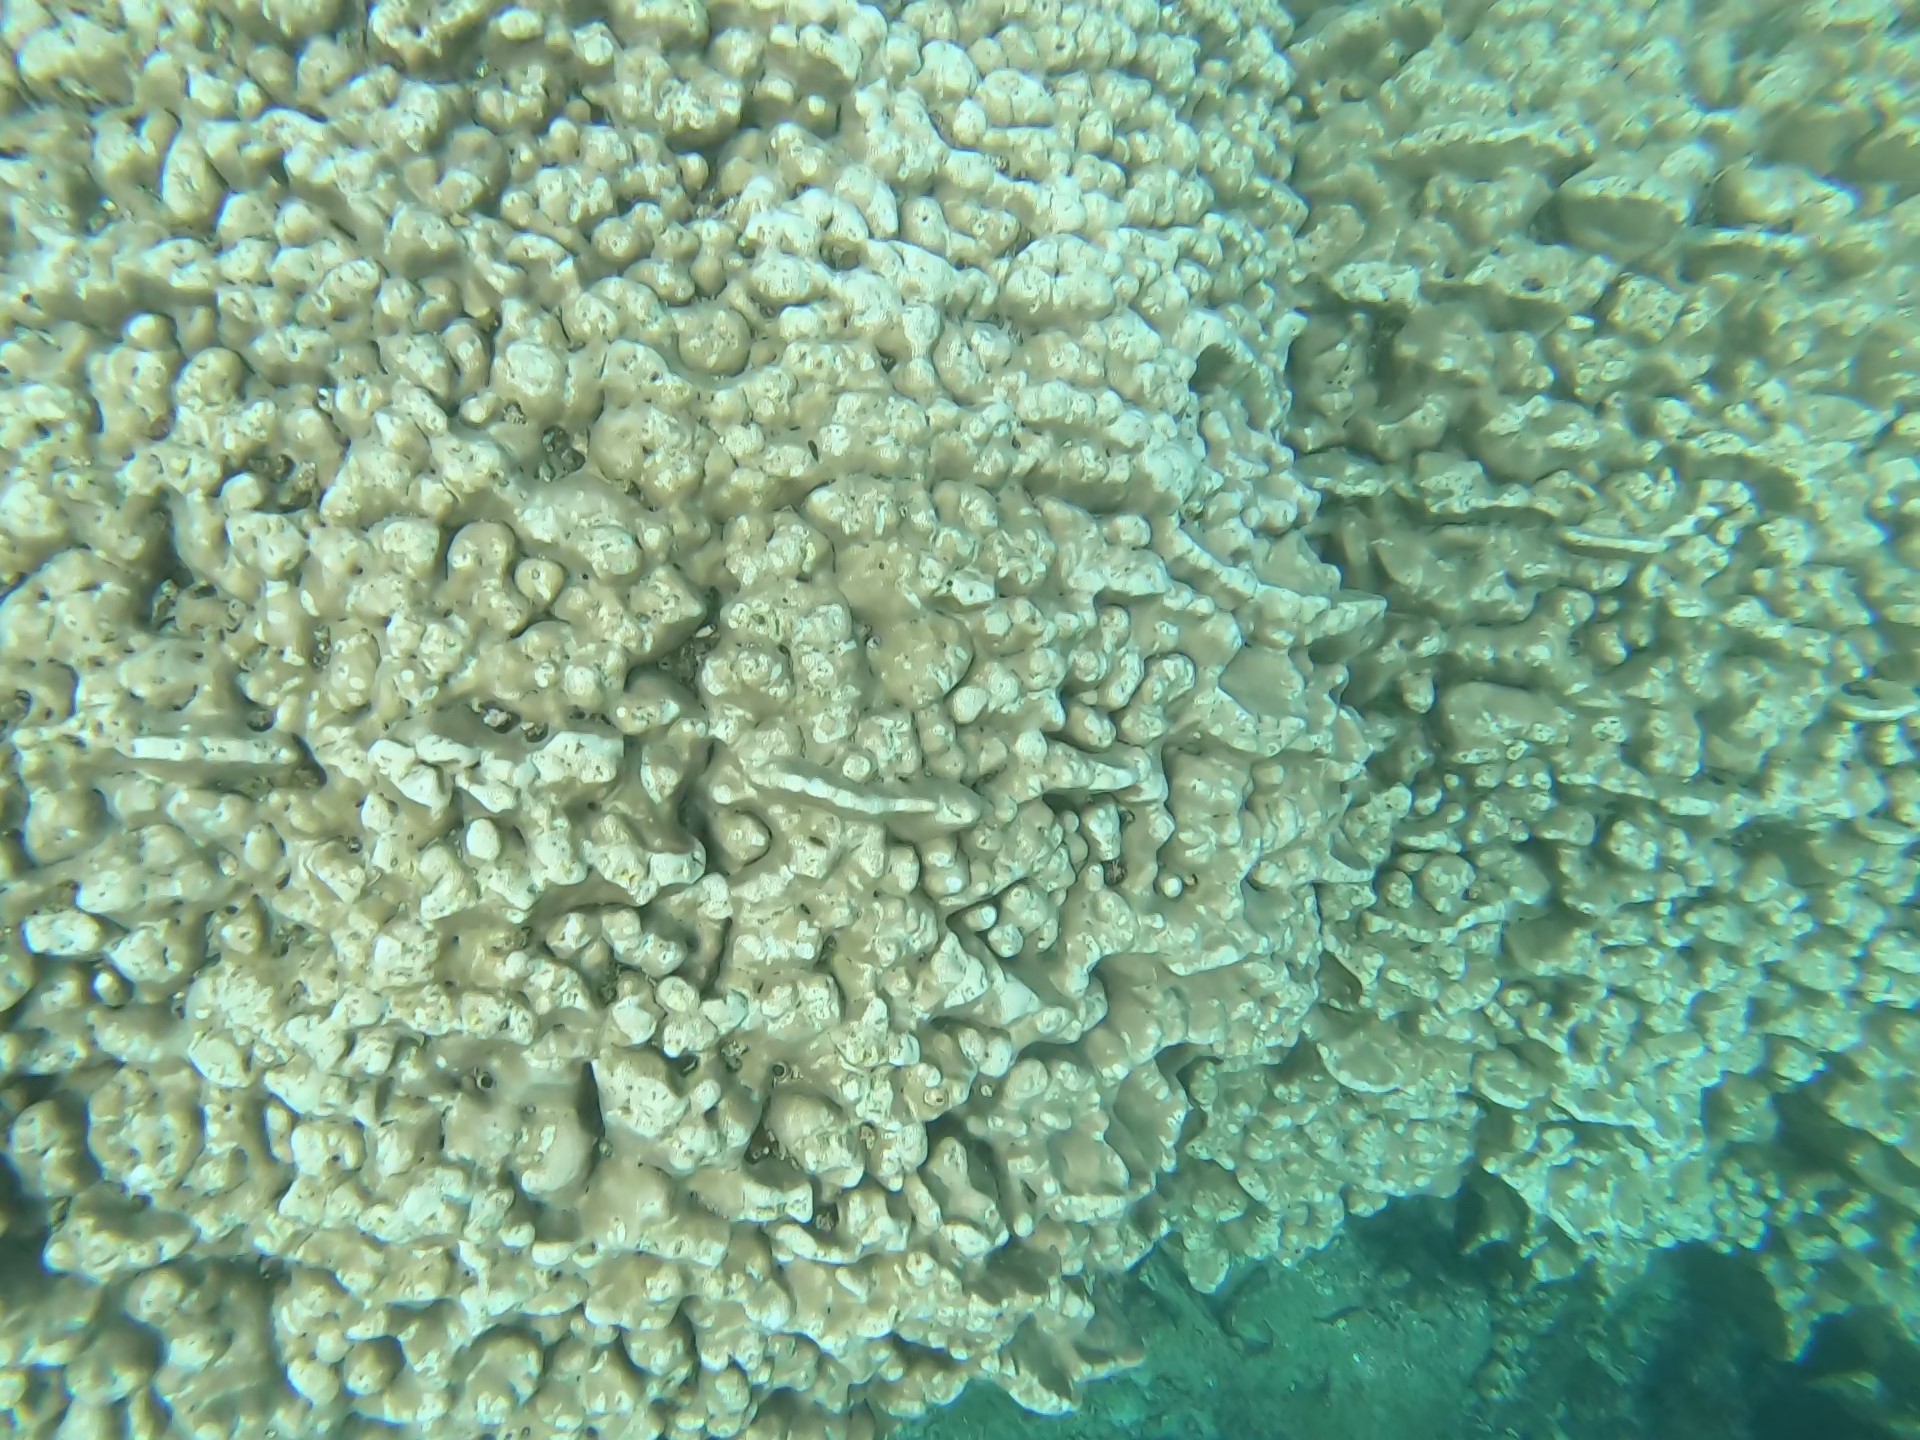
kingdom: Animalia
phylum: Cnidaria
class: Anthozoa
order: Scleractinia
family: Agariciidae
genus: Pavona
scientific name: Pavona duerdeni
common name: Leaf coral
